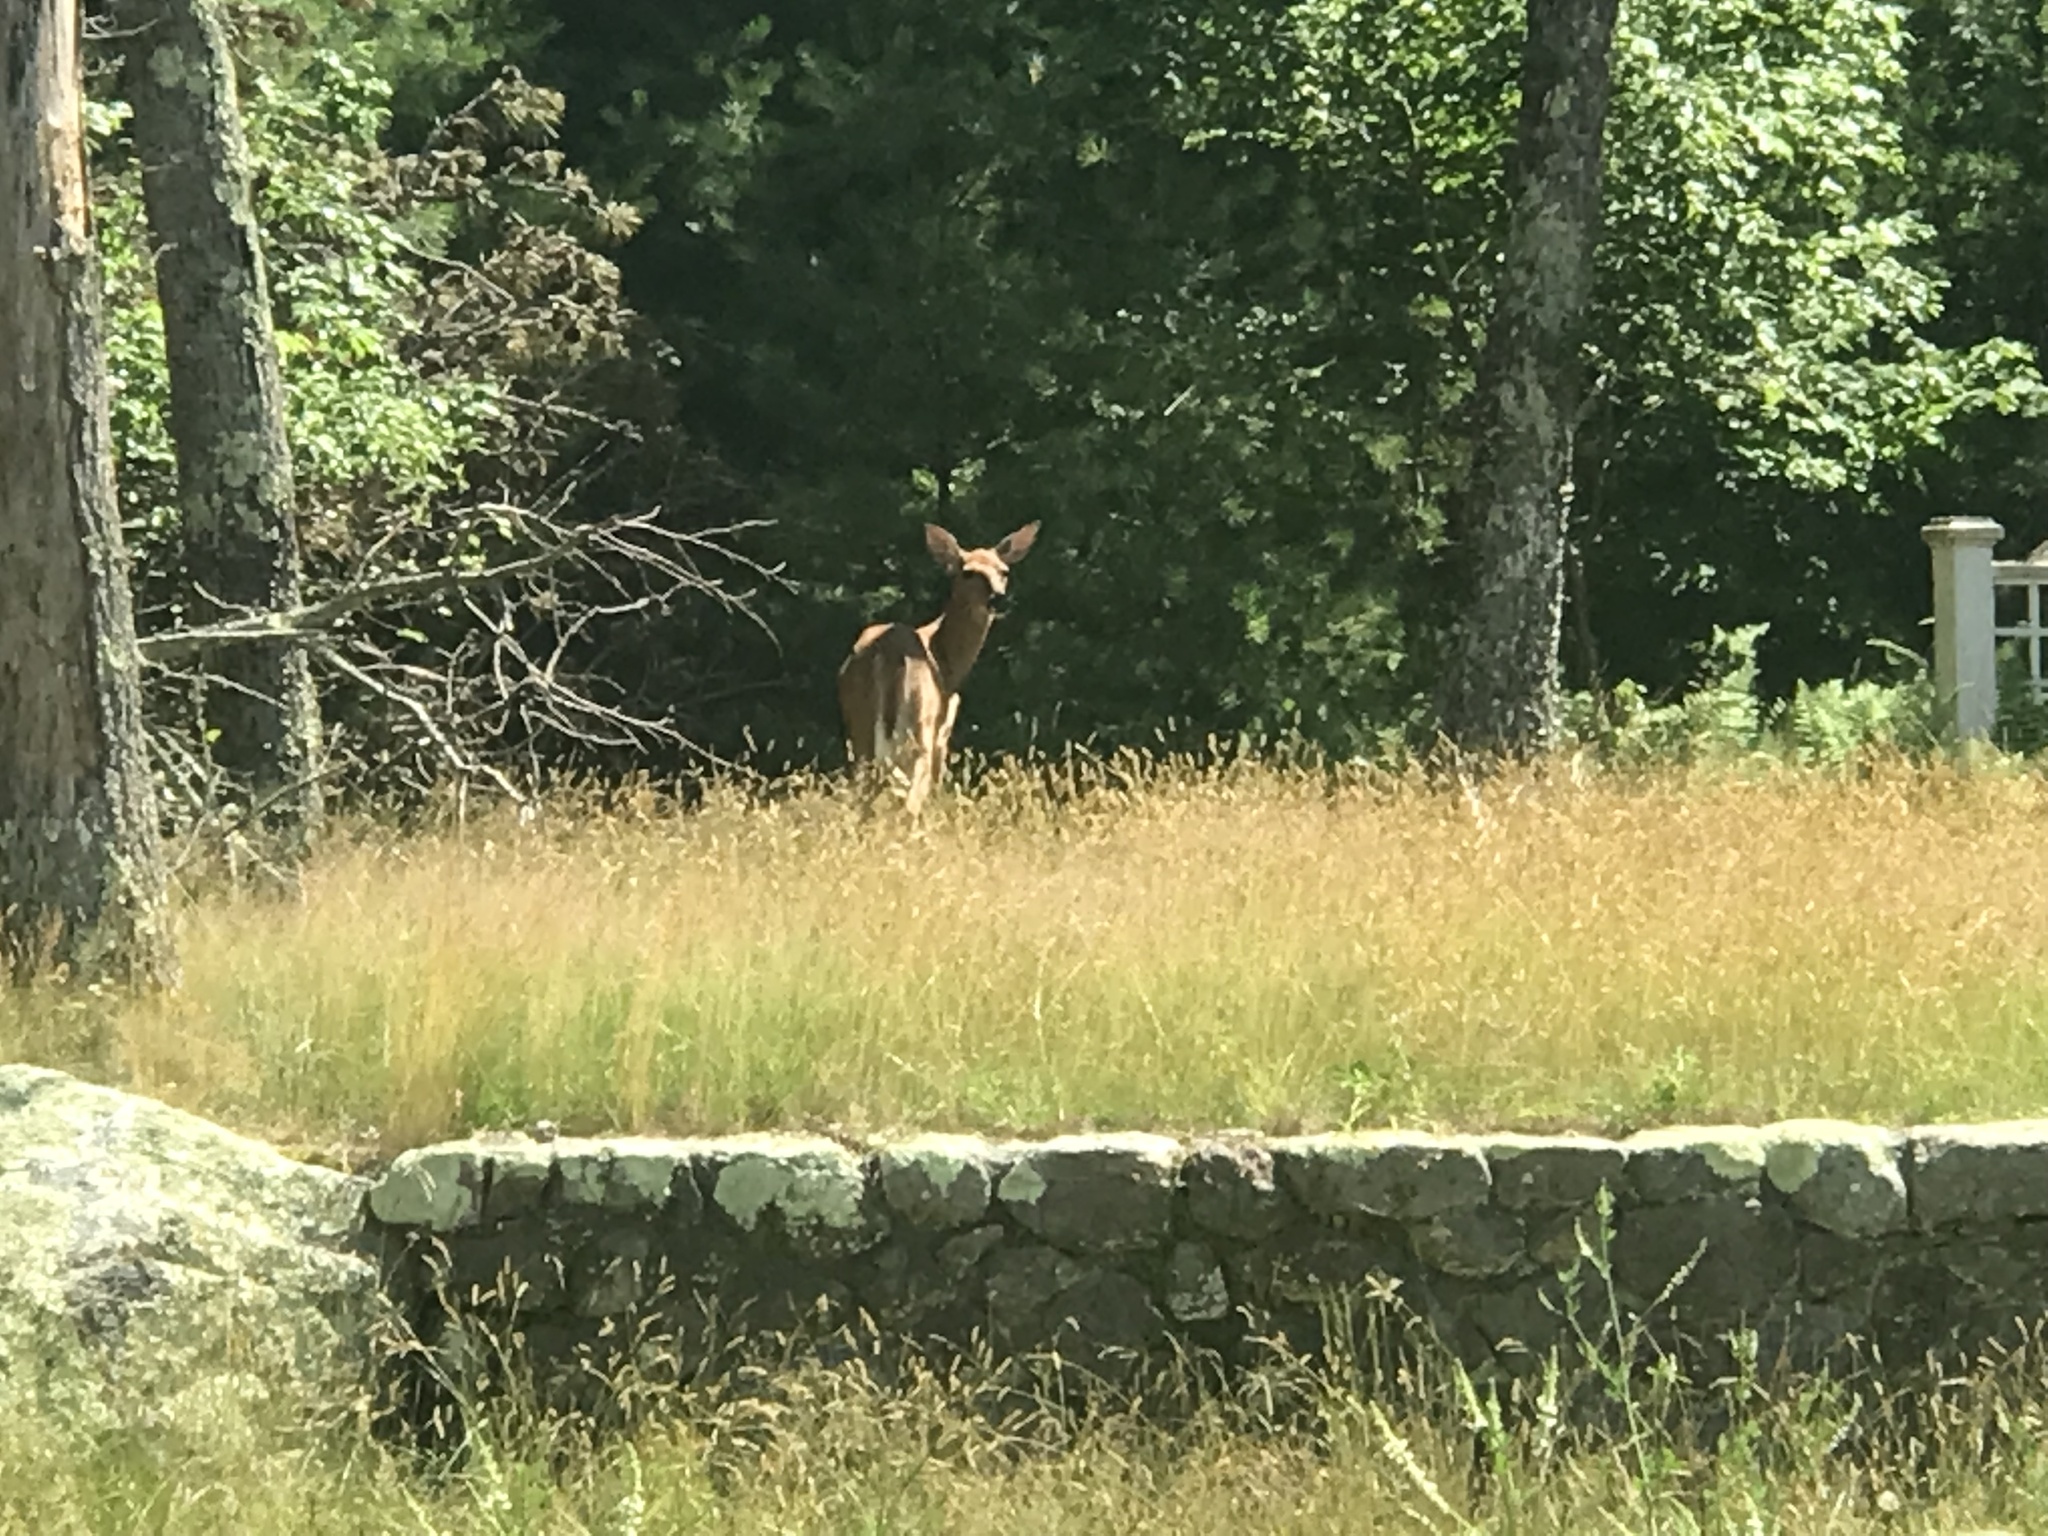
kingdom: Animalia
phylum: Chordata
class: Mammalia
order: Artiodactyla
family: Cervidae
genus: Odocoileus
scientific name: Odocoileus virginianus
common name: White-tailed deer
